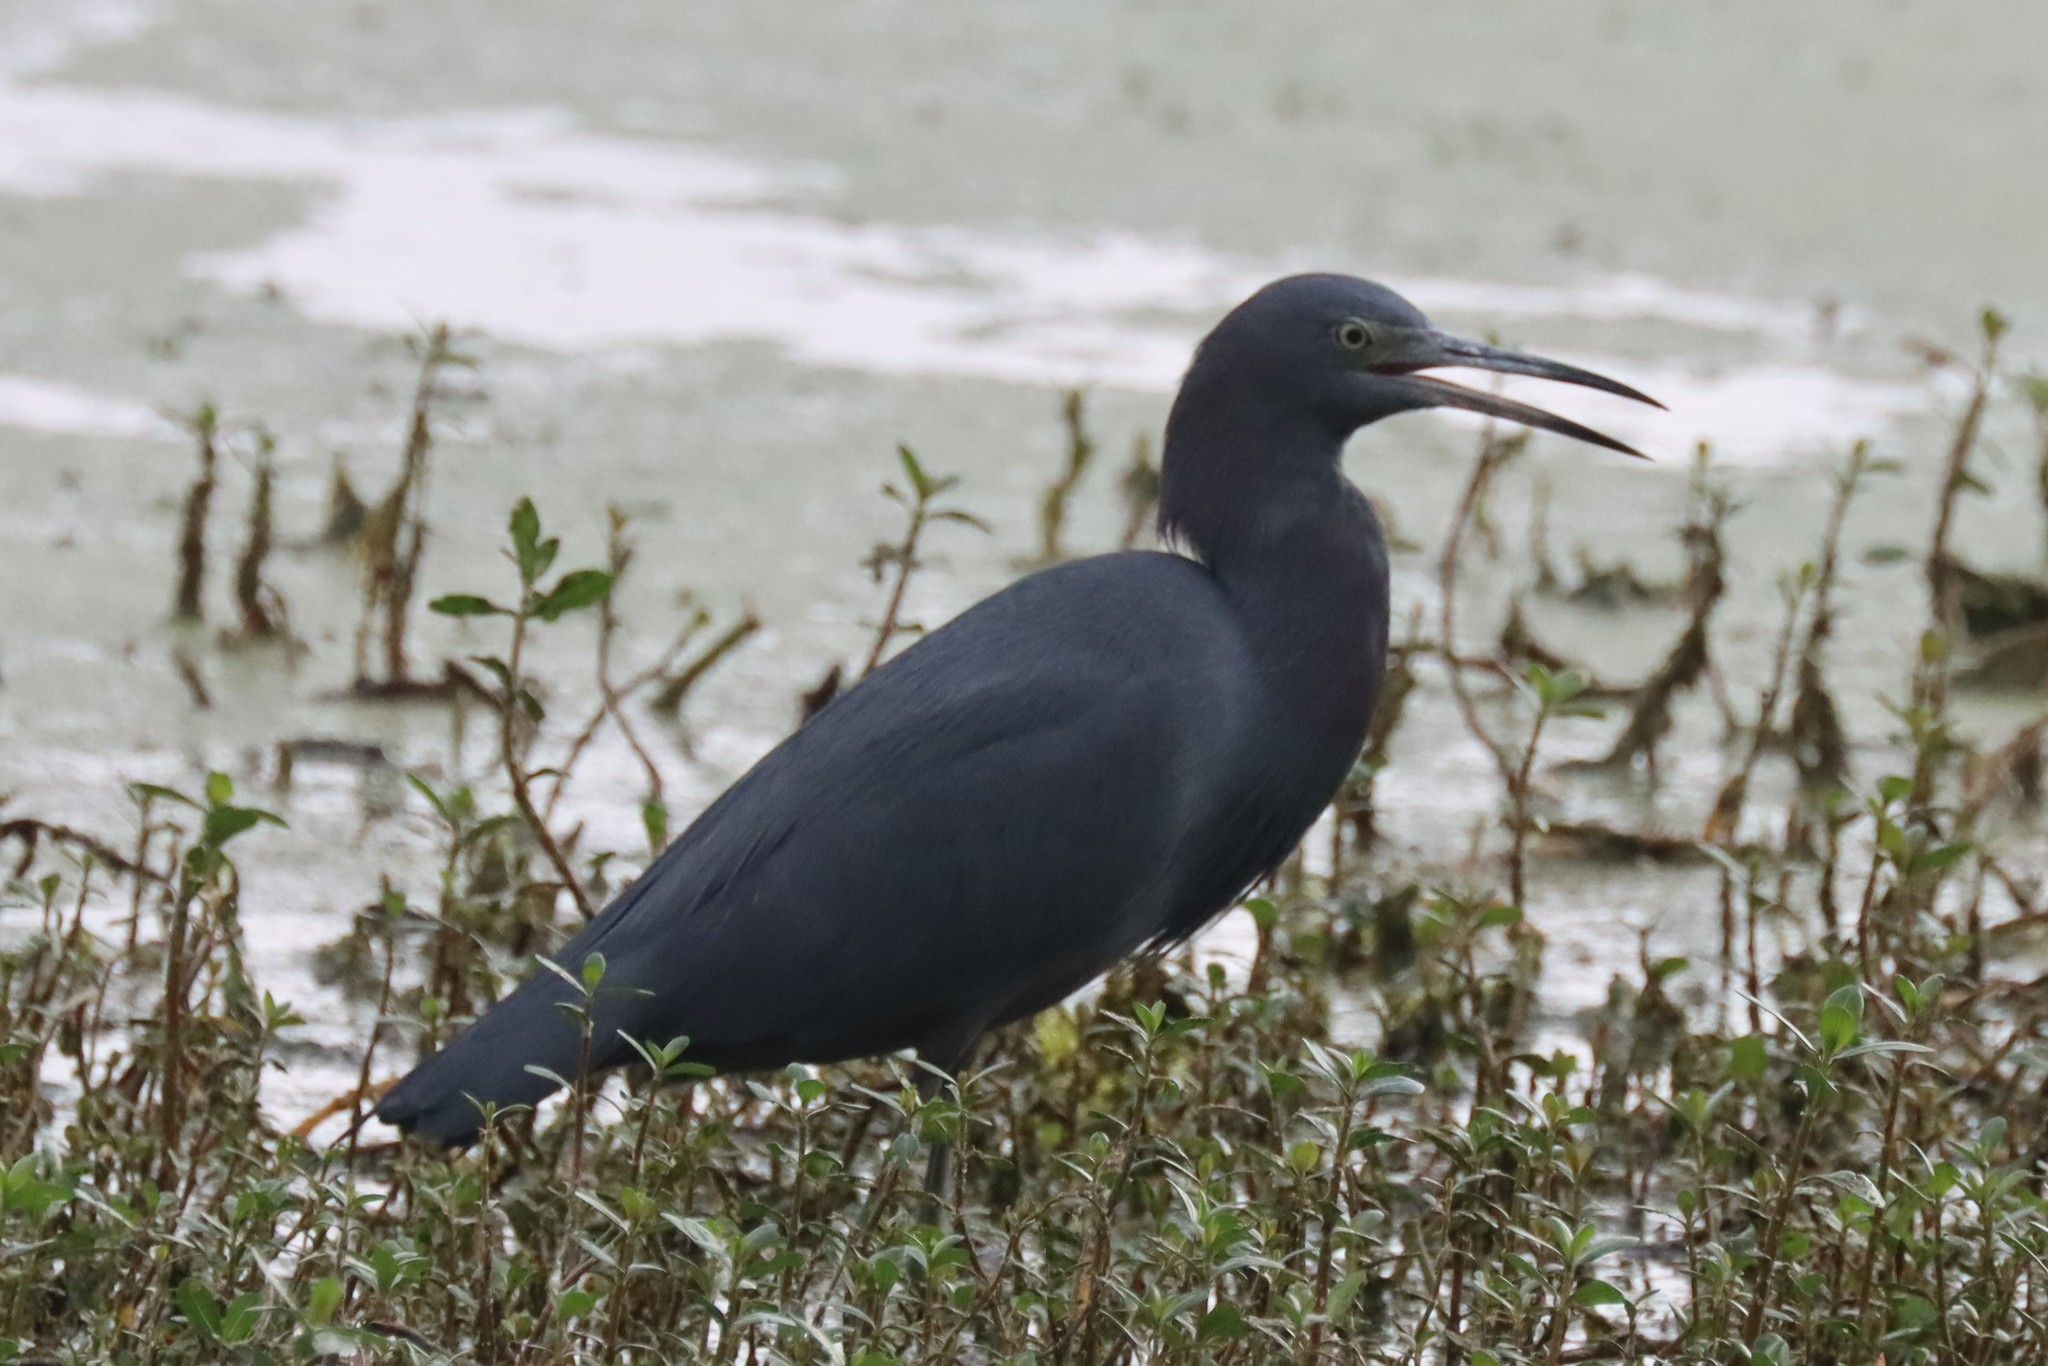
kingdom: Animalia
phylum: Chordata
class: Aves
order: Pelecaniformes
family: Ardeidae
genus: Egretta
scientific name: Egretta caerulea
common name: Little blue heron
